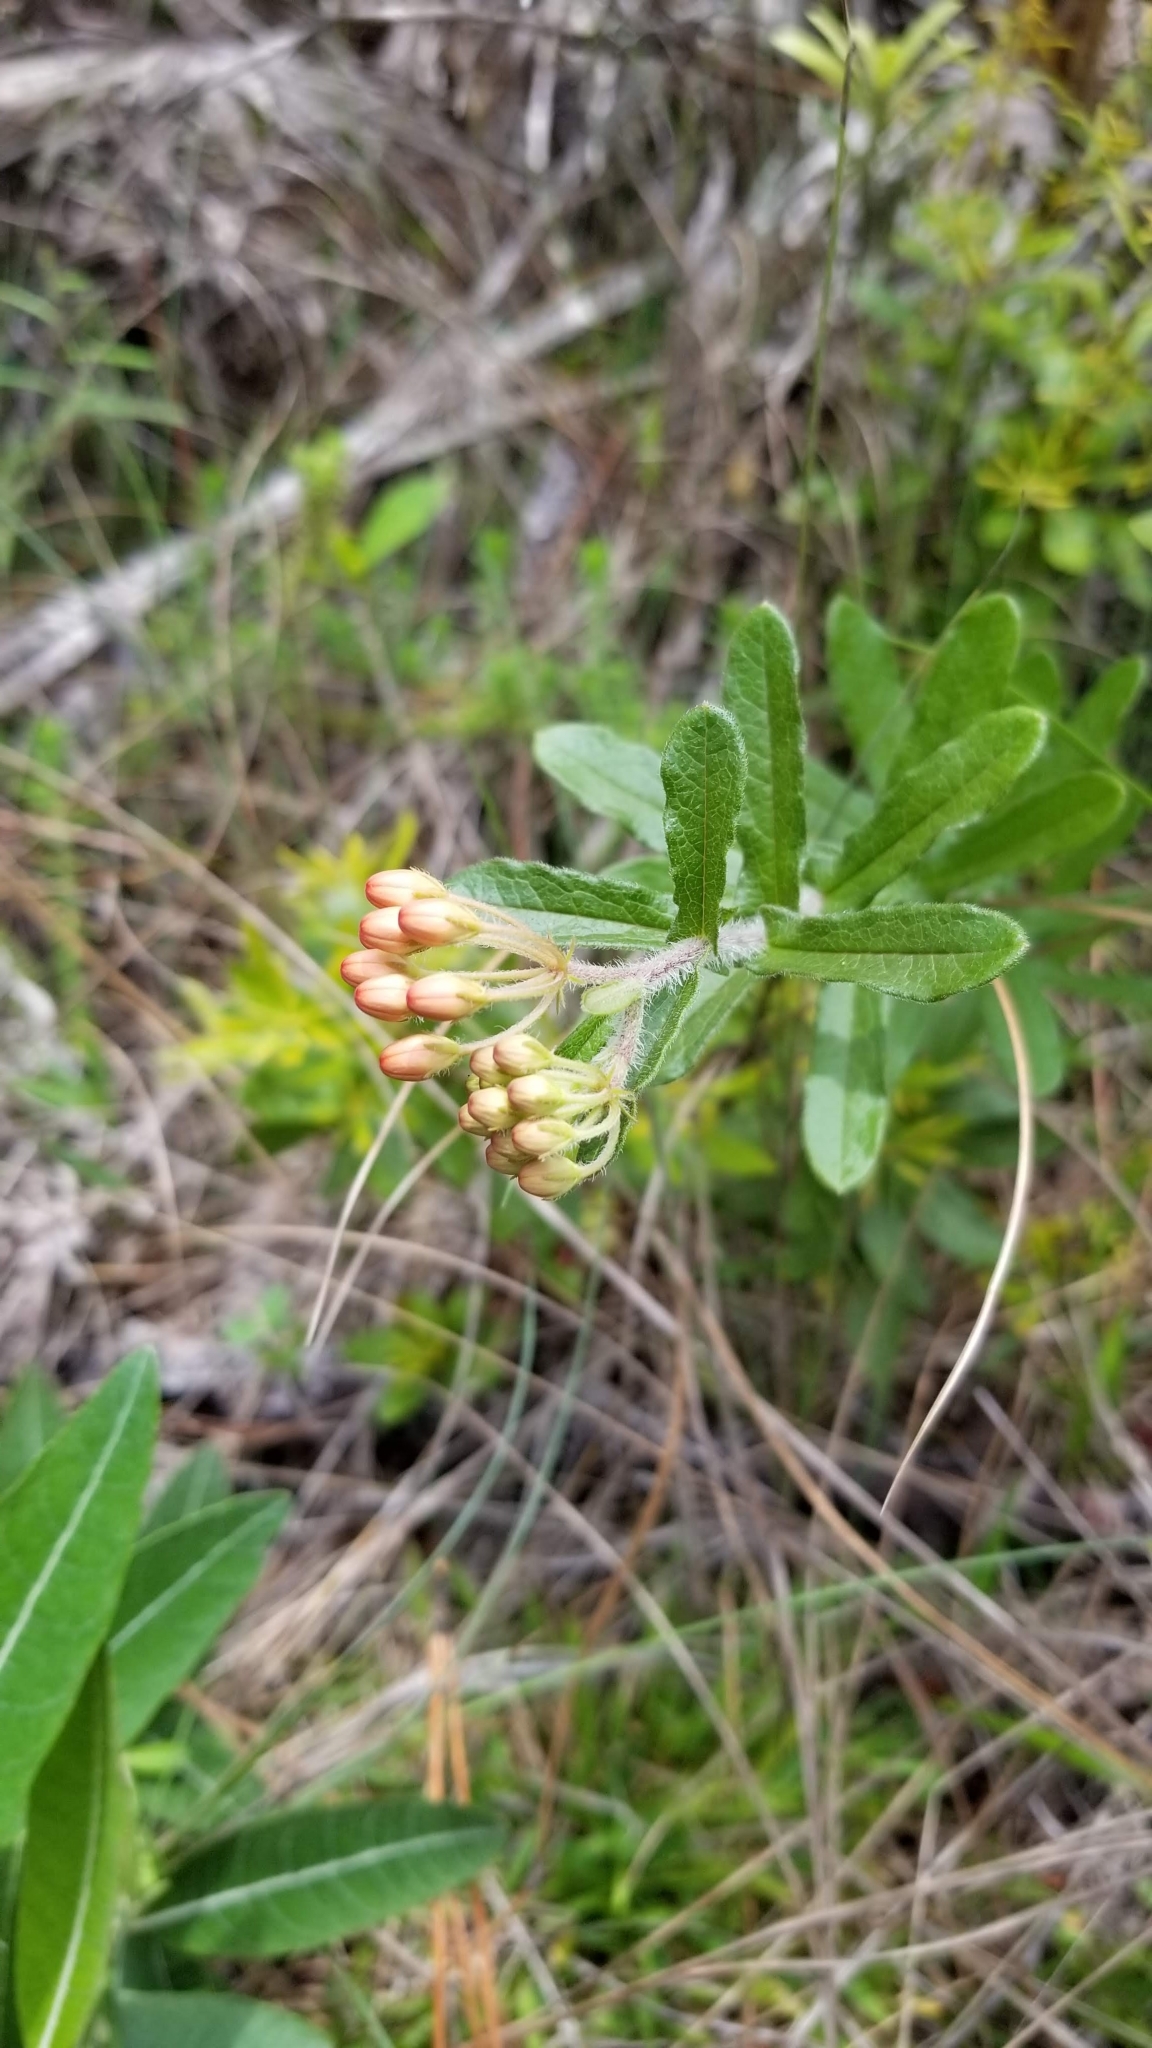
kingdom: Plantae
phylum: Tracheophyta
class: Magnoliopsida
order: Gentianales
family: Apocynaceae
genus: Asclepias
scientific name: Asclepias tuberosa
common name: Butterfly milkweed
